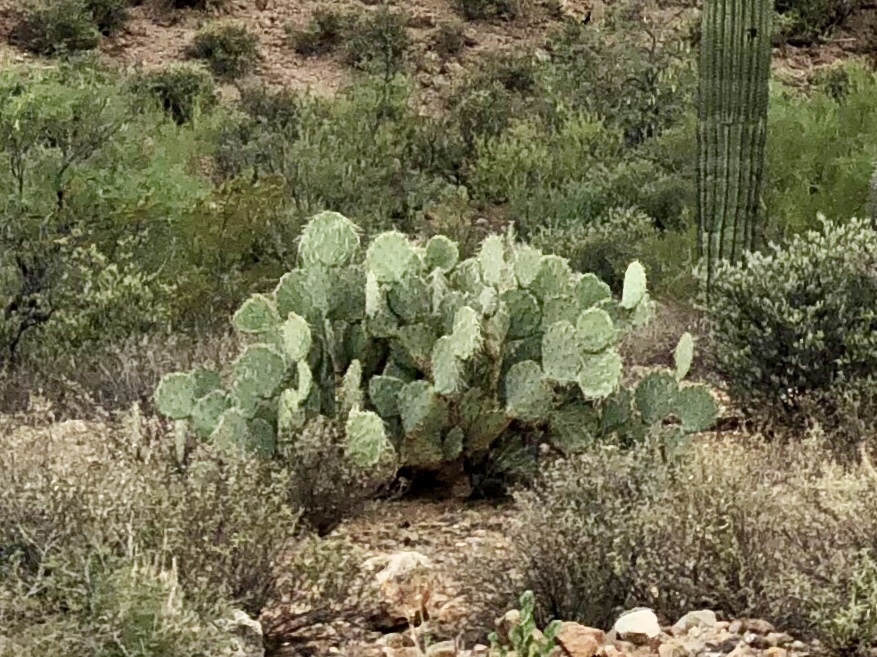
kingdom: Plantae
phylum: Tracheophyta
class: Magnoliopsida
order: Caryophyllales
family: Cactaceae
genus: Opuntia
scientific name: Opuntia engelmannii
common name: Cactus-apple
